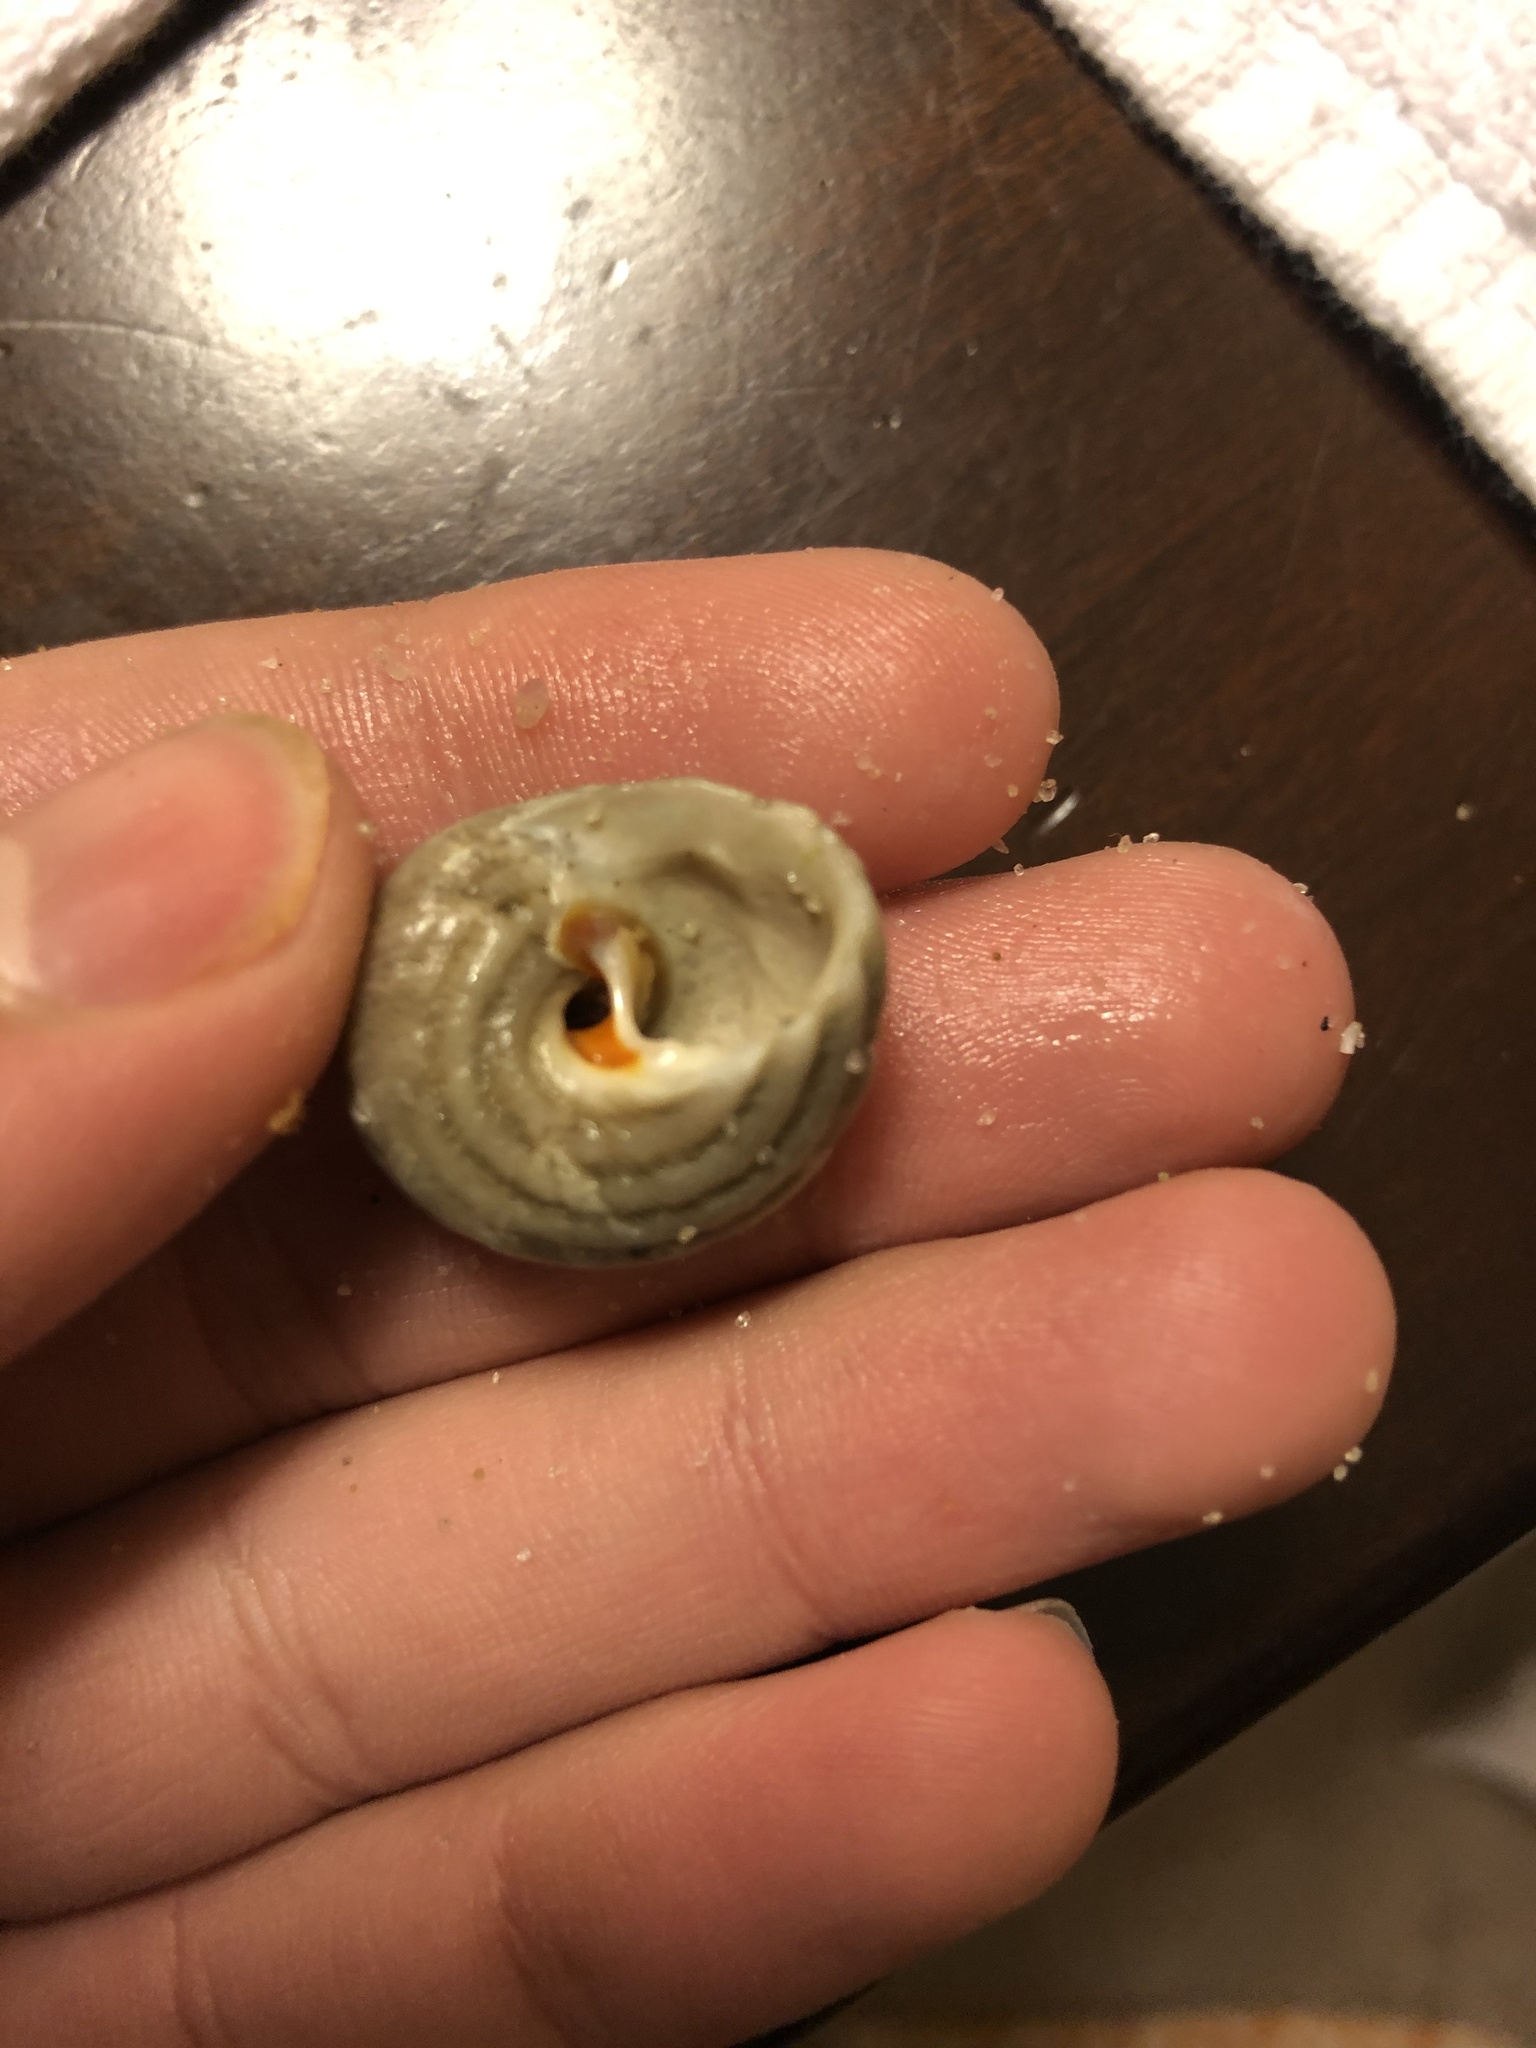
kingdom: Animalia
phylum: Mollusca
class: Gastropoda
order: Trochida
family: Tegulidae
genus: Tegula
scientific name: Tegula aureotincta
